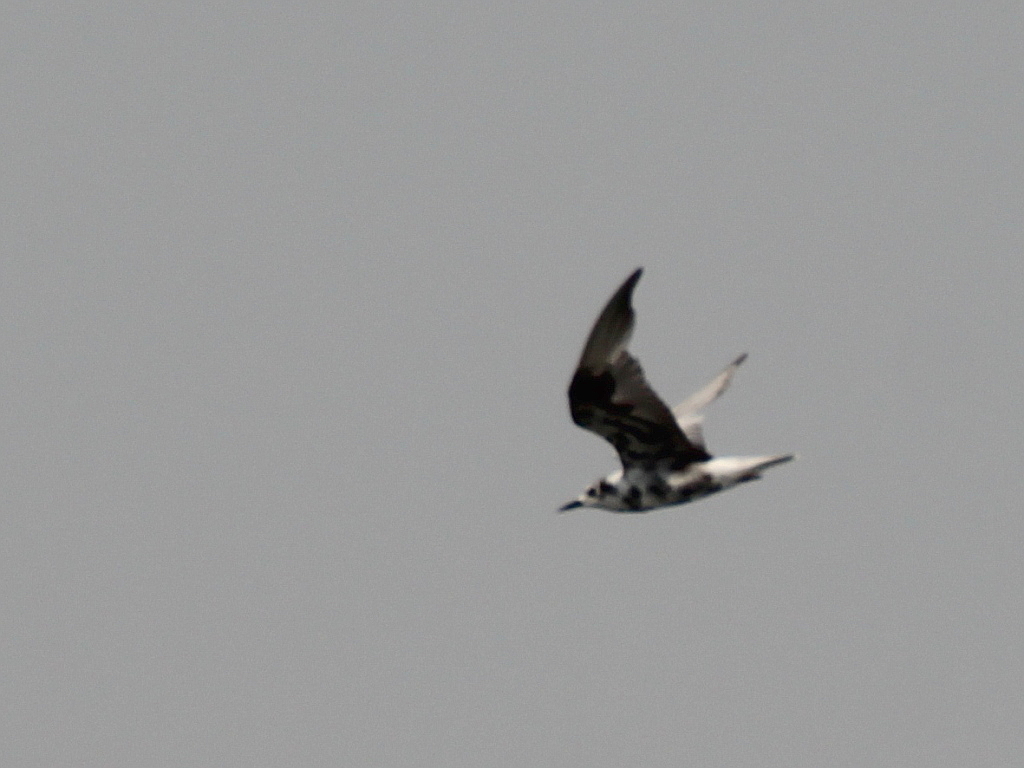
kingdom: Animalia
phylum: Chordata
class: Aves
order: Charadriiformes
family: Laridae
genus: Chlidonias
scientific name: Chlidonias leucopterus
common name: White-winged tern
